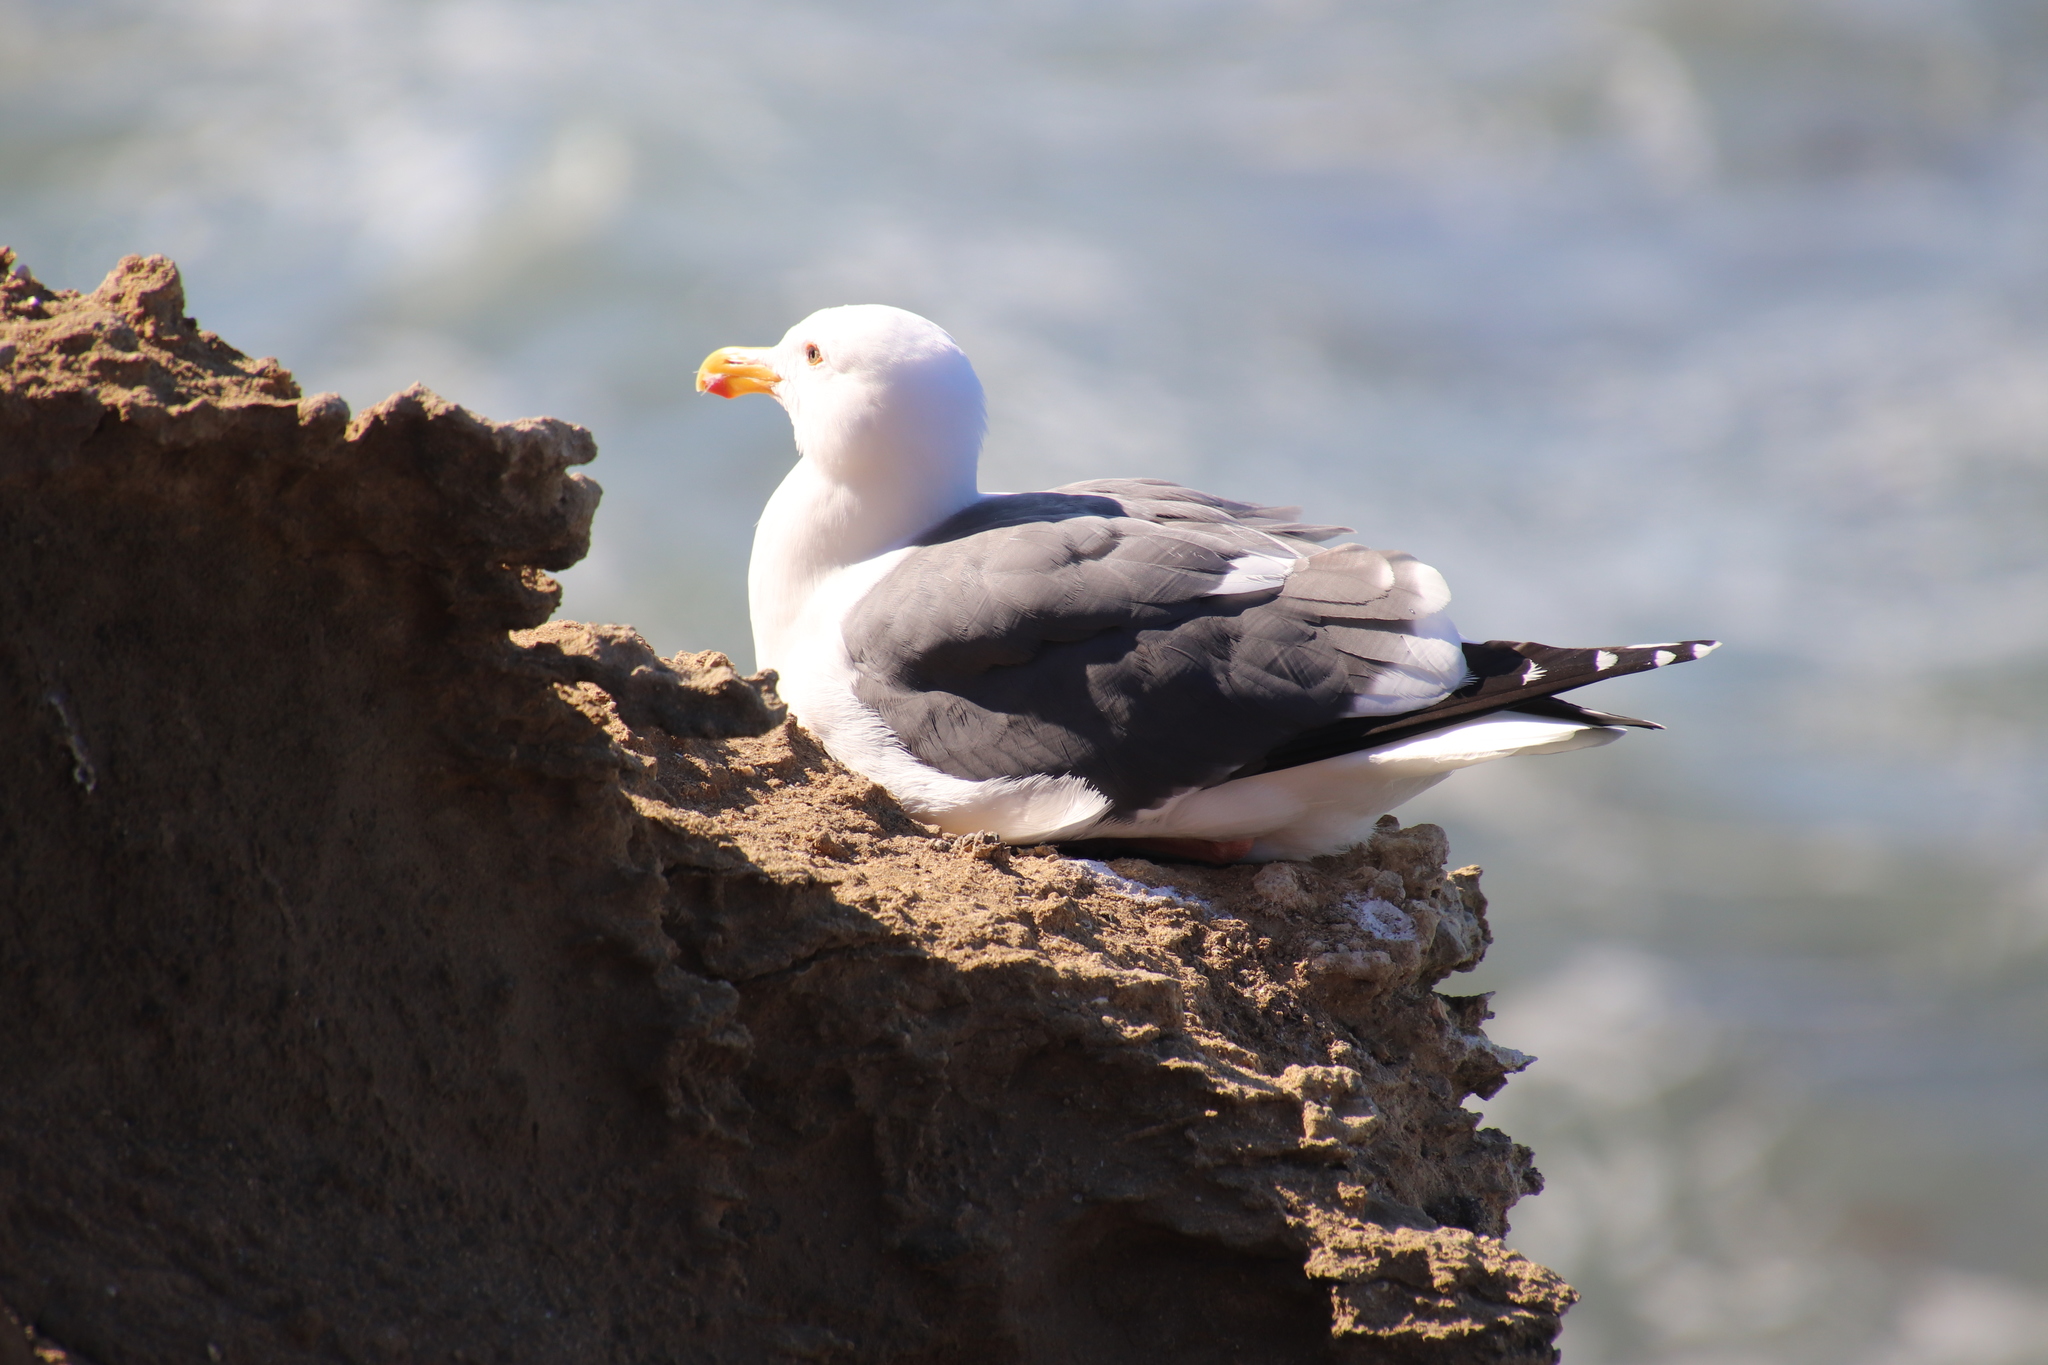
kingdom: Animalia
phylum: Chordata
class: Aves
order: Charadriiformes
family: Laridae
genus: Larus
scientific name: Larus occidentalis
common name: Western gull
